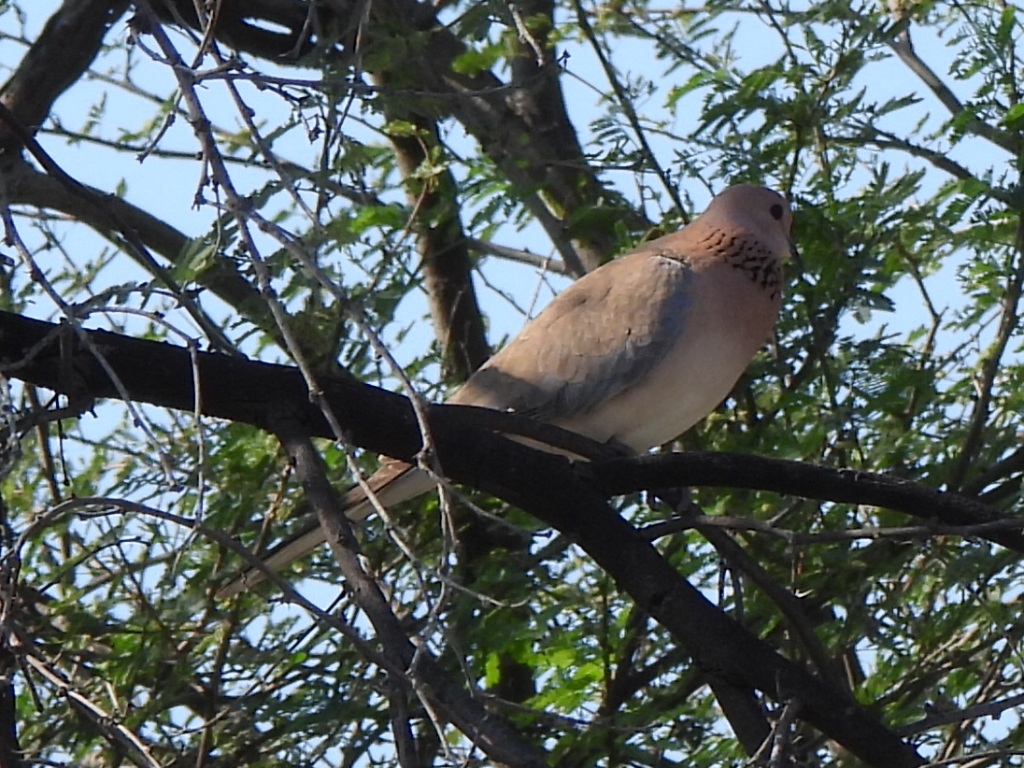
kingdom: Animalia
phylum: Chordata
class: Aves
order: Columbiformes
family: Columbidae
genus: Spilopelia
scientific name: Spilopelia senegalensis
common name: Laughing dove
